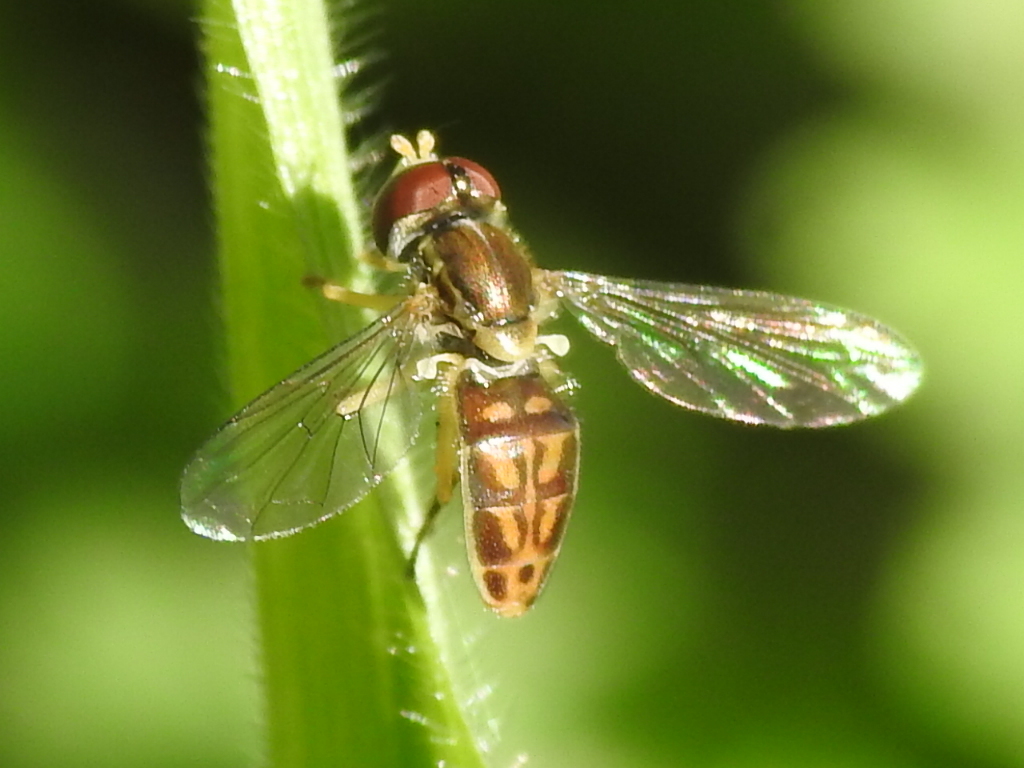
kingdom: Animalia
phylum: Arthropoda
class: Insecta
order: Diptera
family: Syrphidae
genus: Toxomerus
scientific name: Toxomerus marginatus
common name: Syrphid fly
